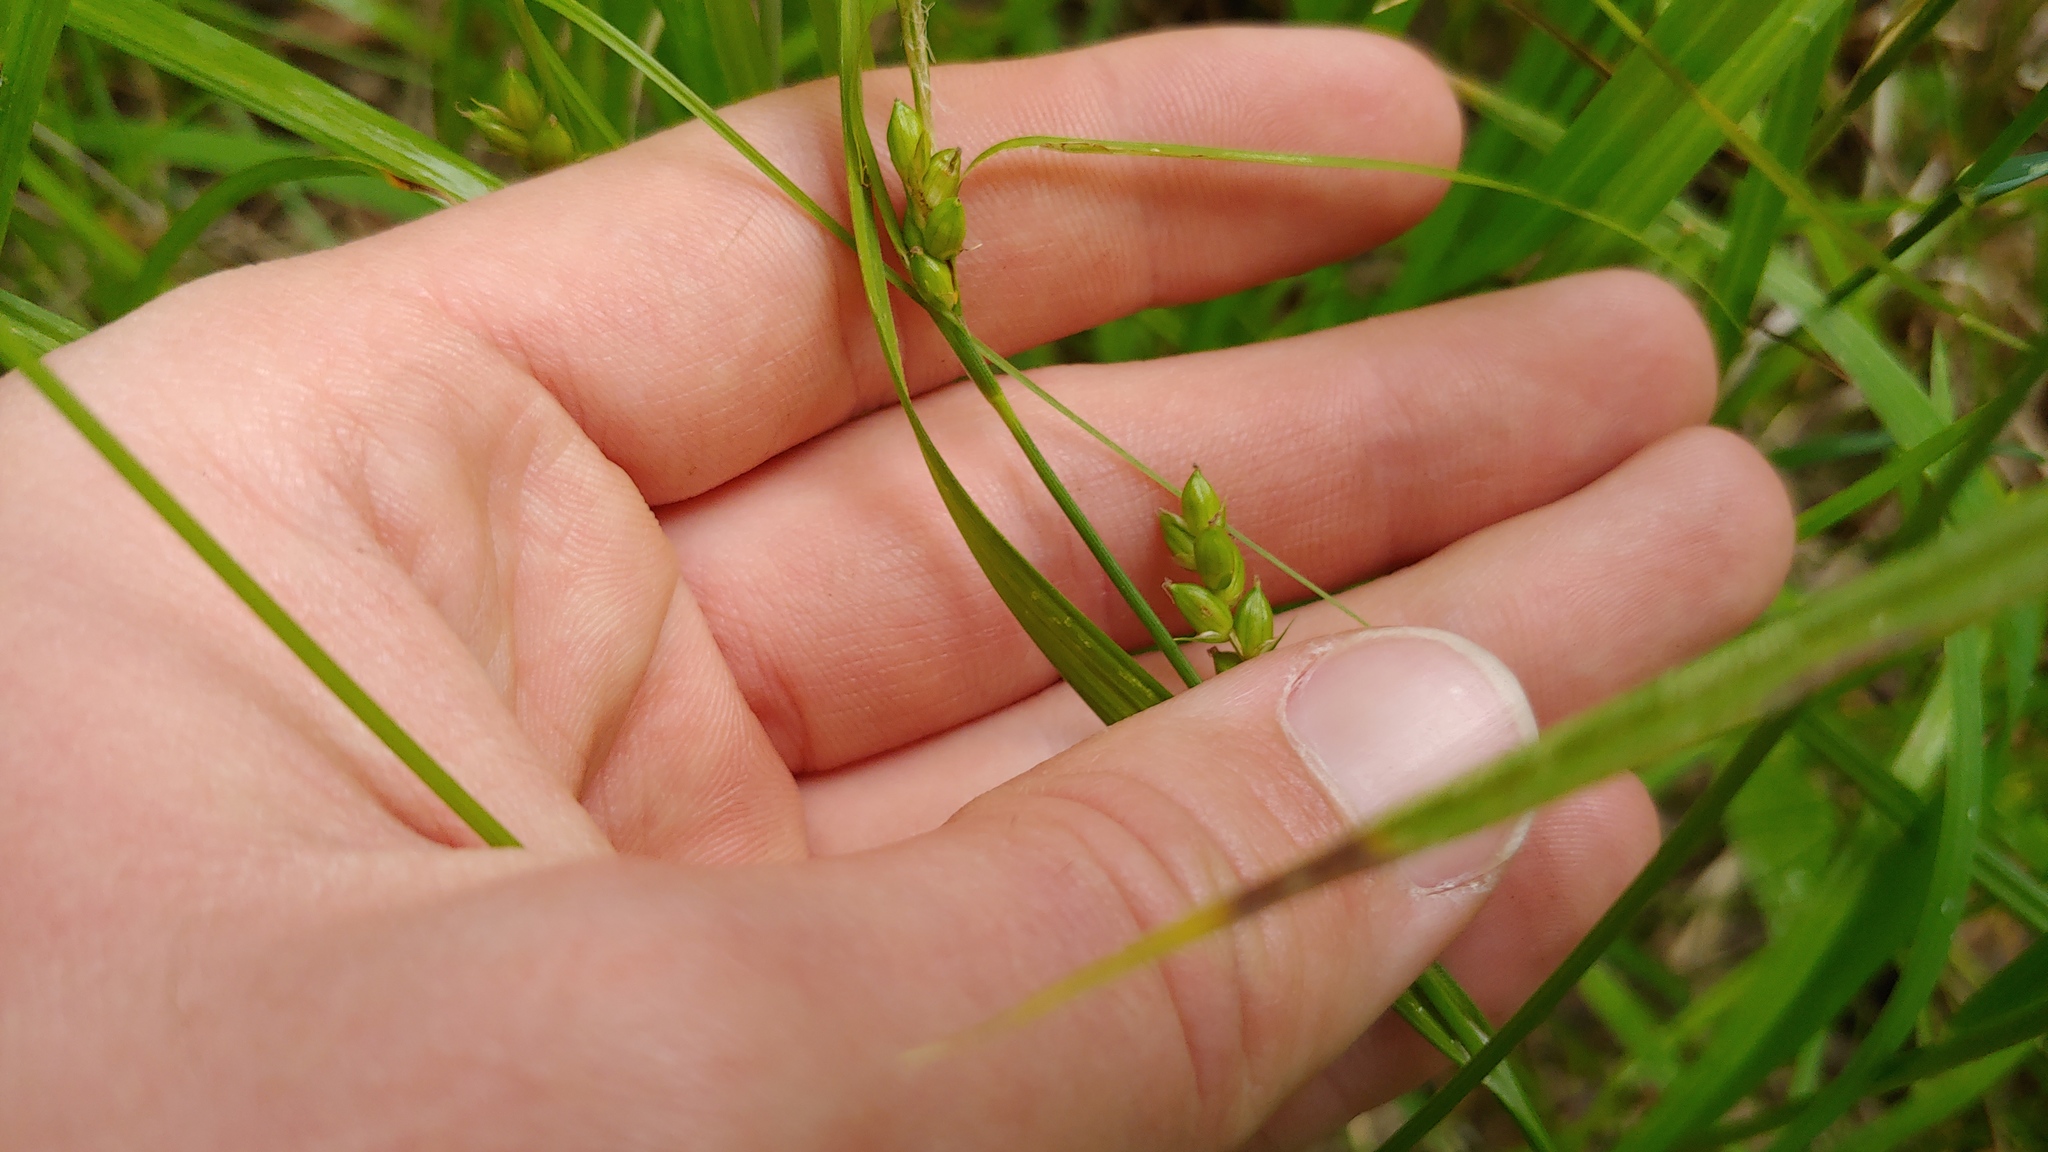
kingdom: Plantae
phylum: Tracheophyta
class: Liliopsida
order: Poales
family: Cyperaceae
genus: Carex
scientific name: Carex grisea
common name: Eastern narrow-leaved sedge
